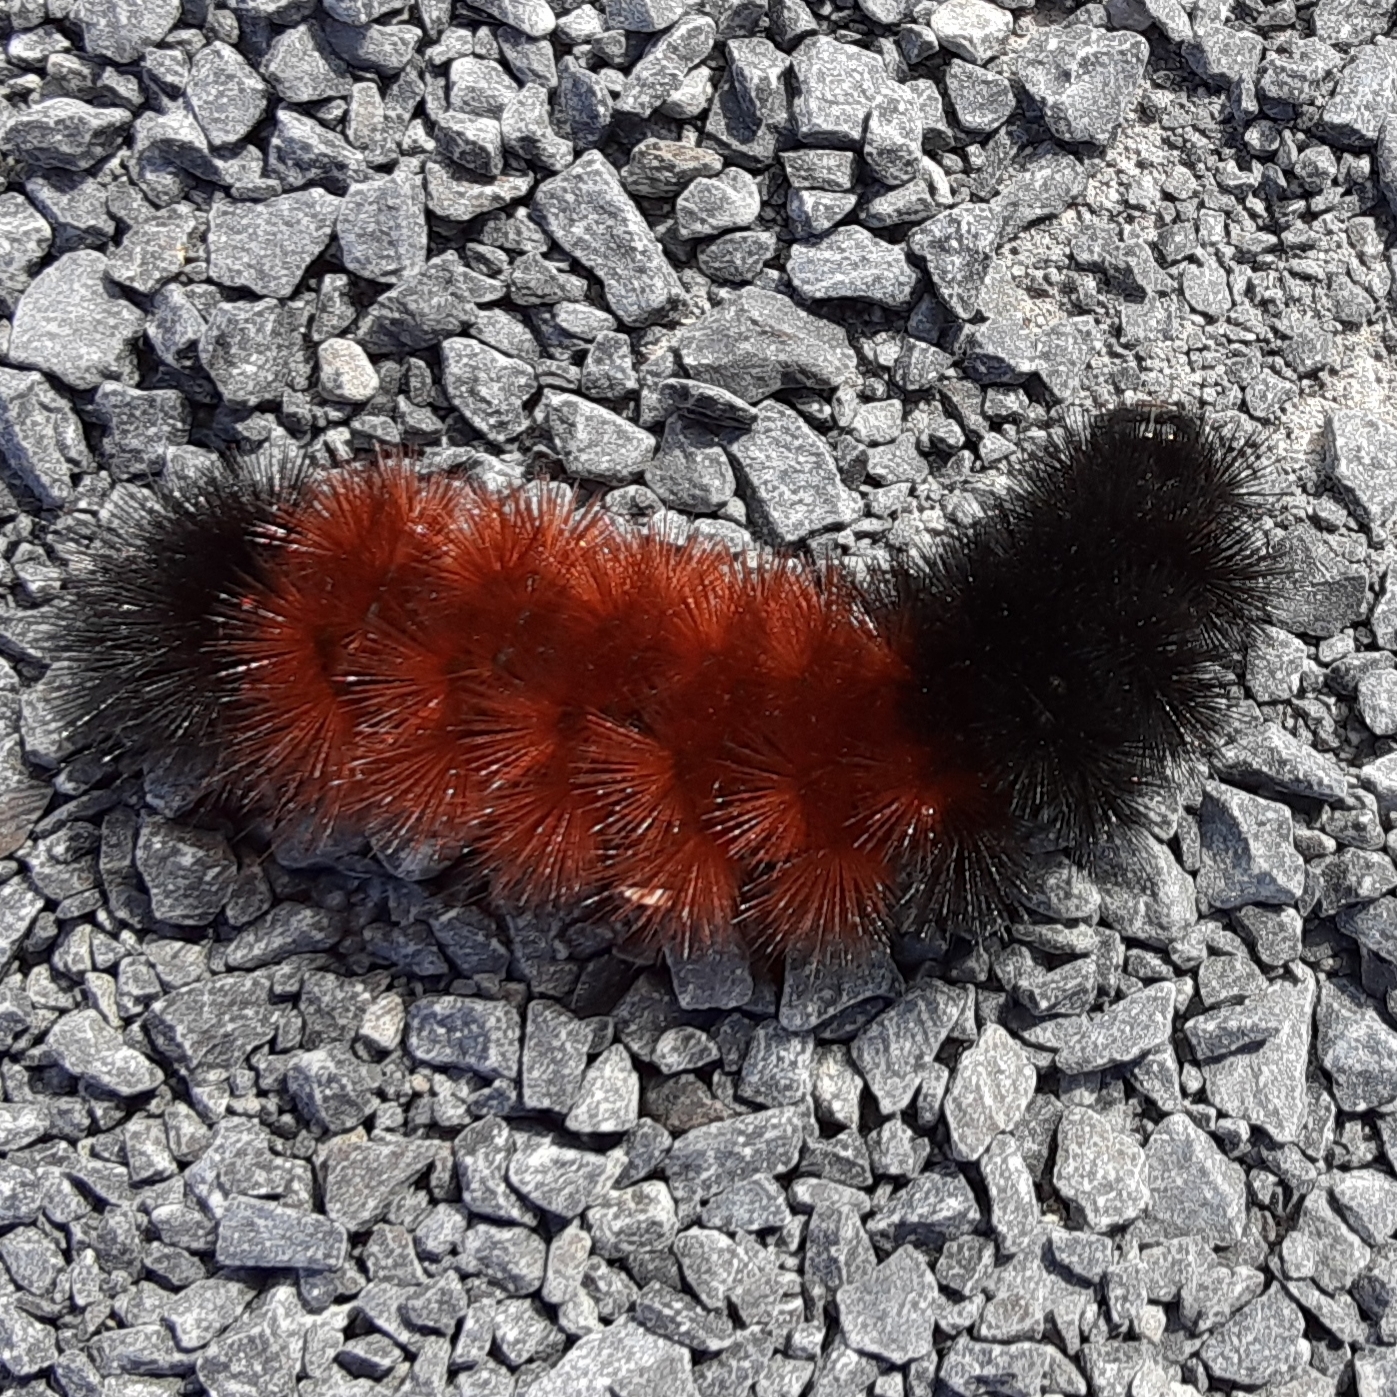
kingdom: Animalia
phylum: Arthropoda
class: Insecta
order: Lepidoptera
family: Erebidae
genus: Pyrrharctia
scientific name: Pyrrharctia isabella
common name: Isabella tiger moth
